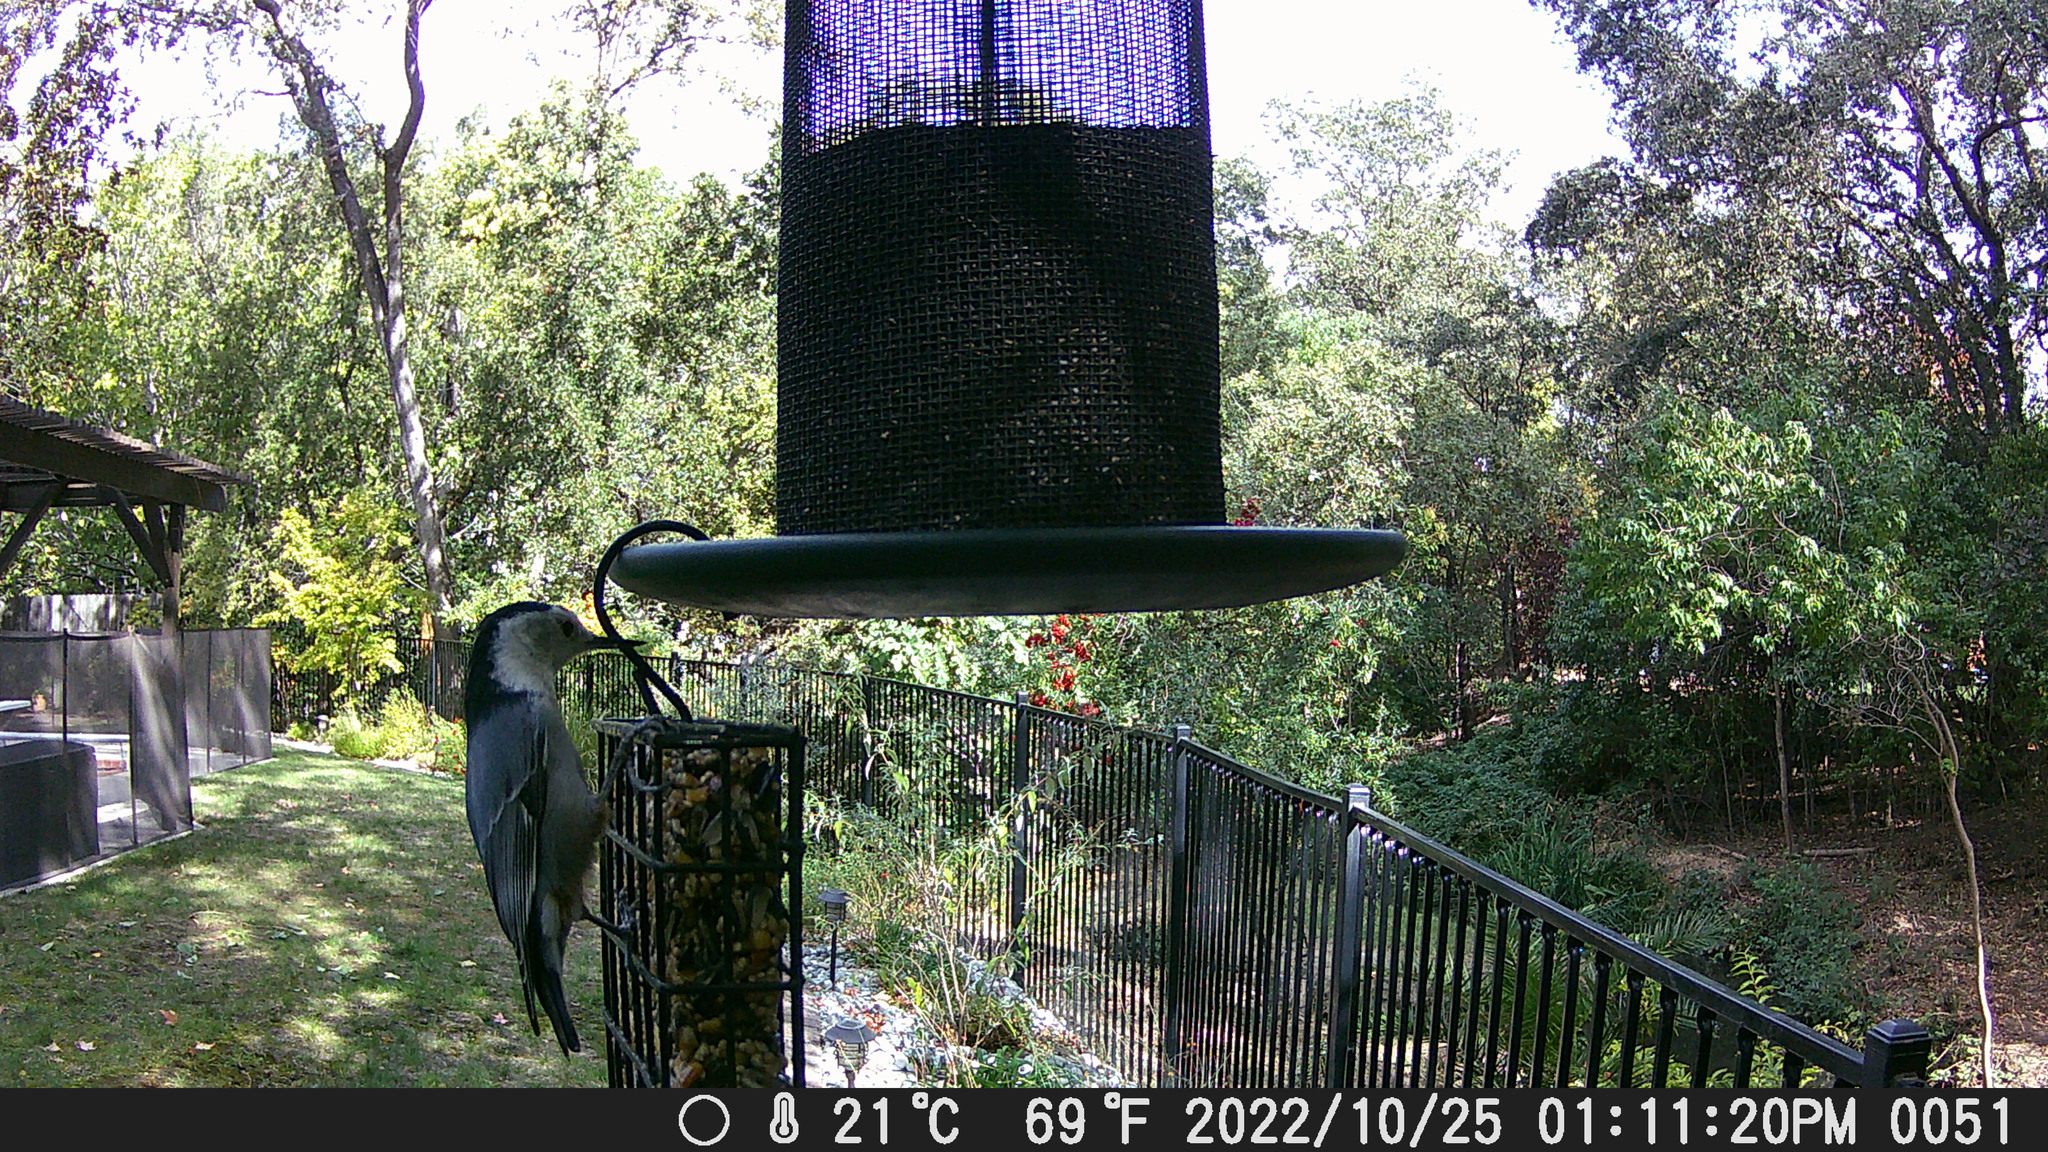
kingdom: Animalia
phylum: Chordata
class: Aves
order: Passeriformes
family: Sittidae
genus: Sitta
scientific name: Sitta carolinensis
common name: White-breasted nuthatch
